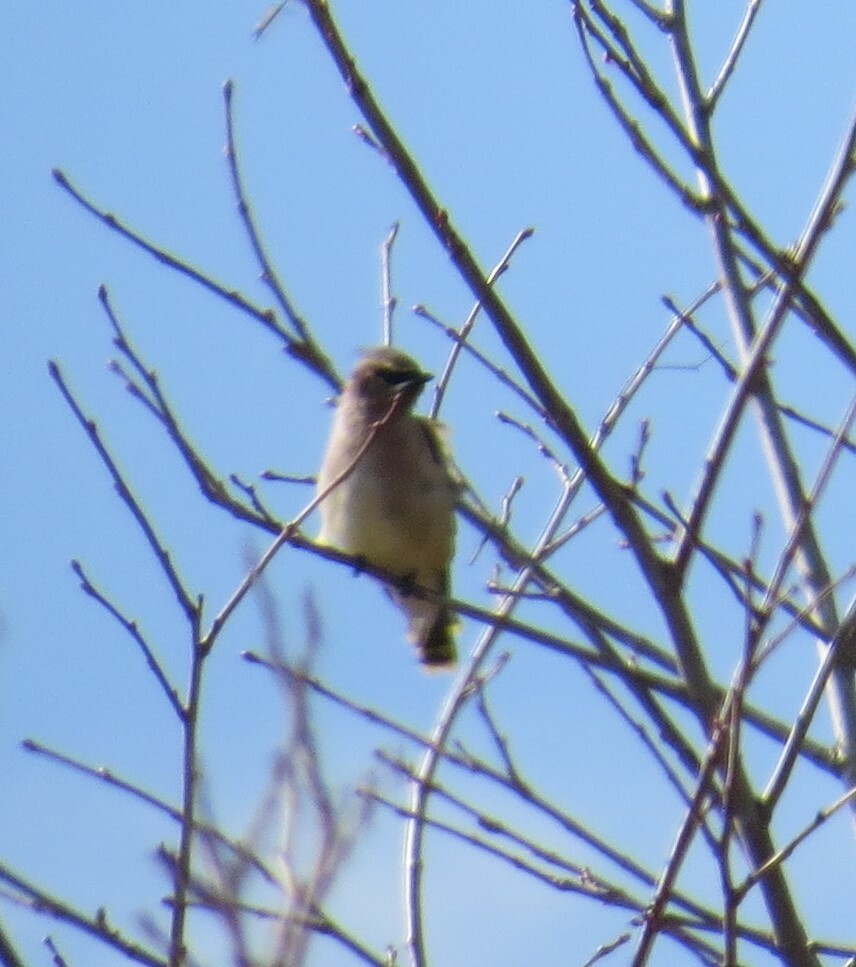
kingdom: Animalia
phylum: Chordata
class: Aves
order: Passeriformes
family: Bombycillidae
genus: Bombycilla
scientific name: Bombycilla cedrorum
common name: Cedar waxwing
